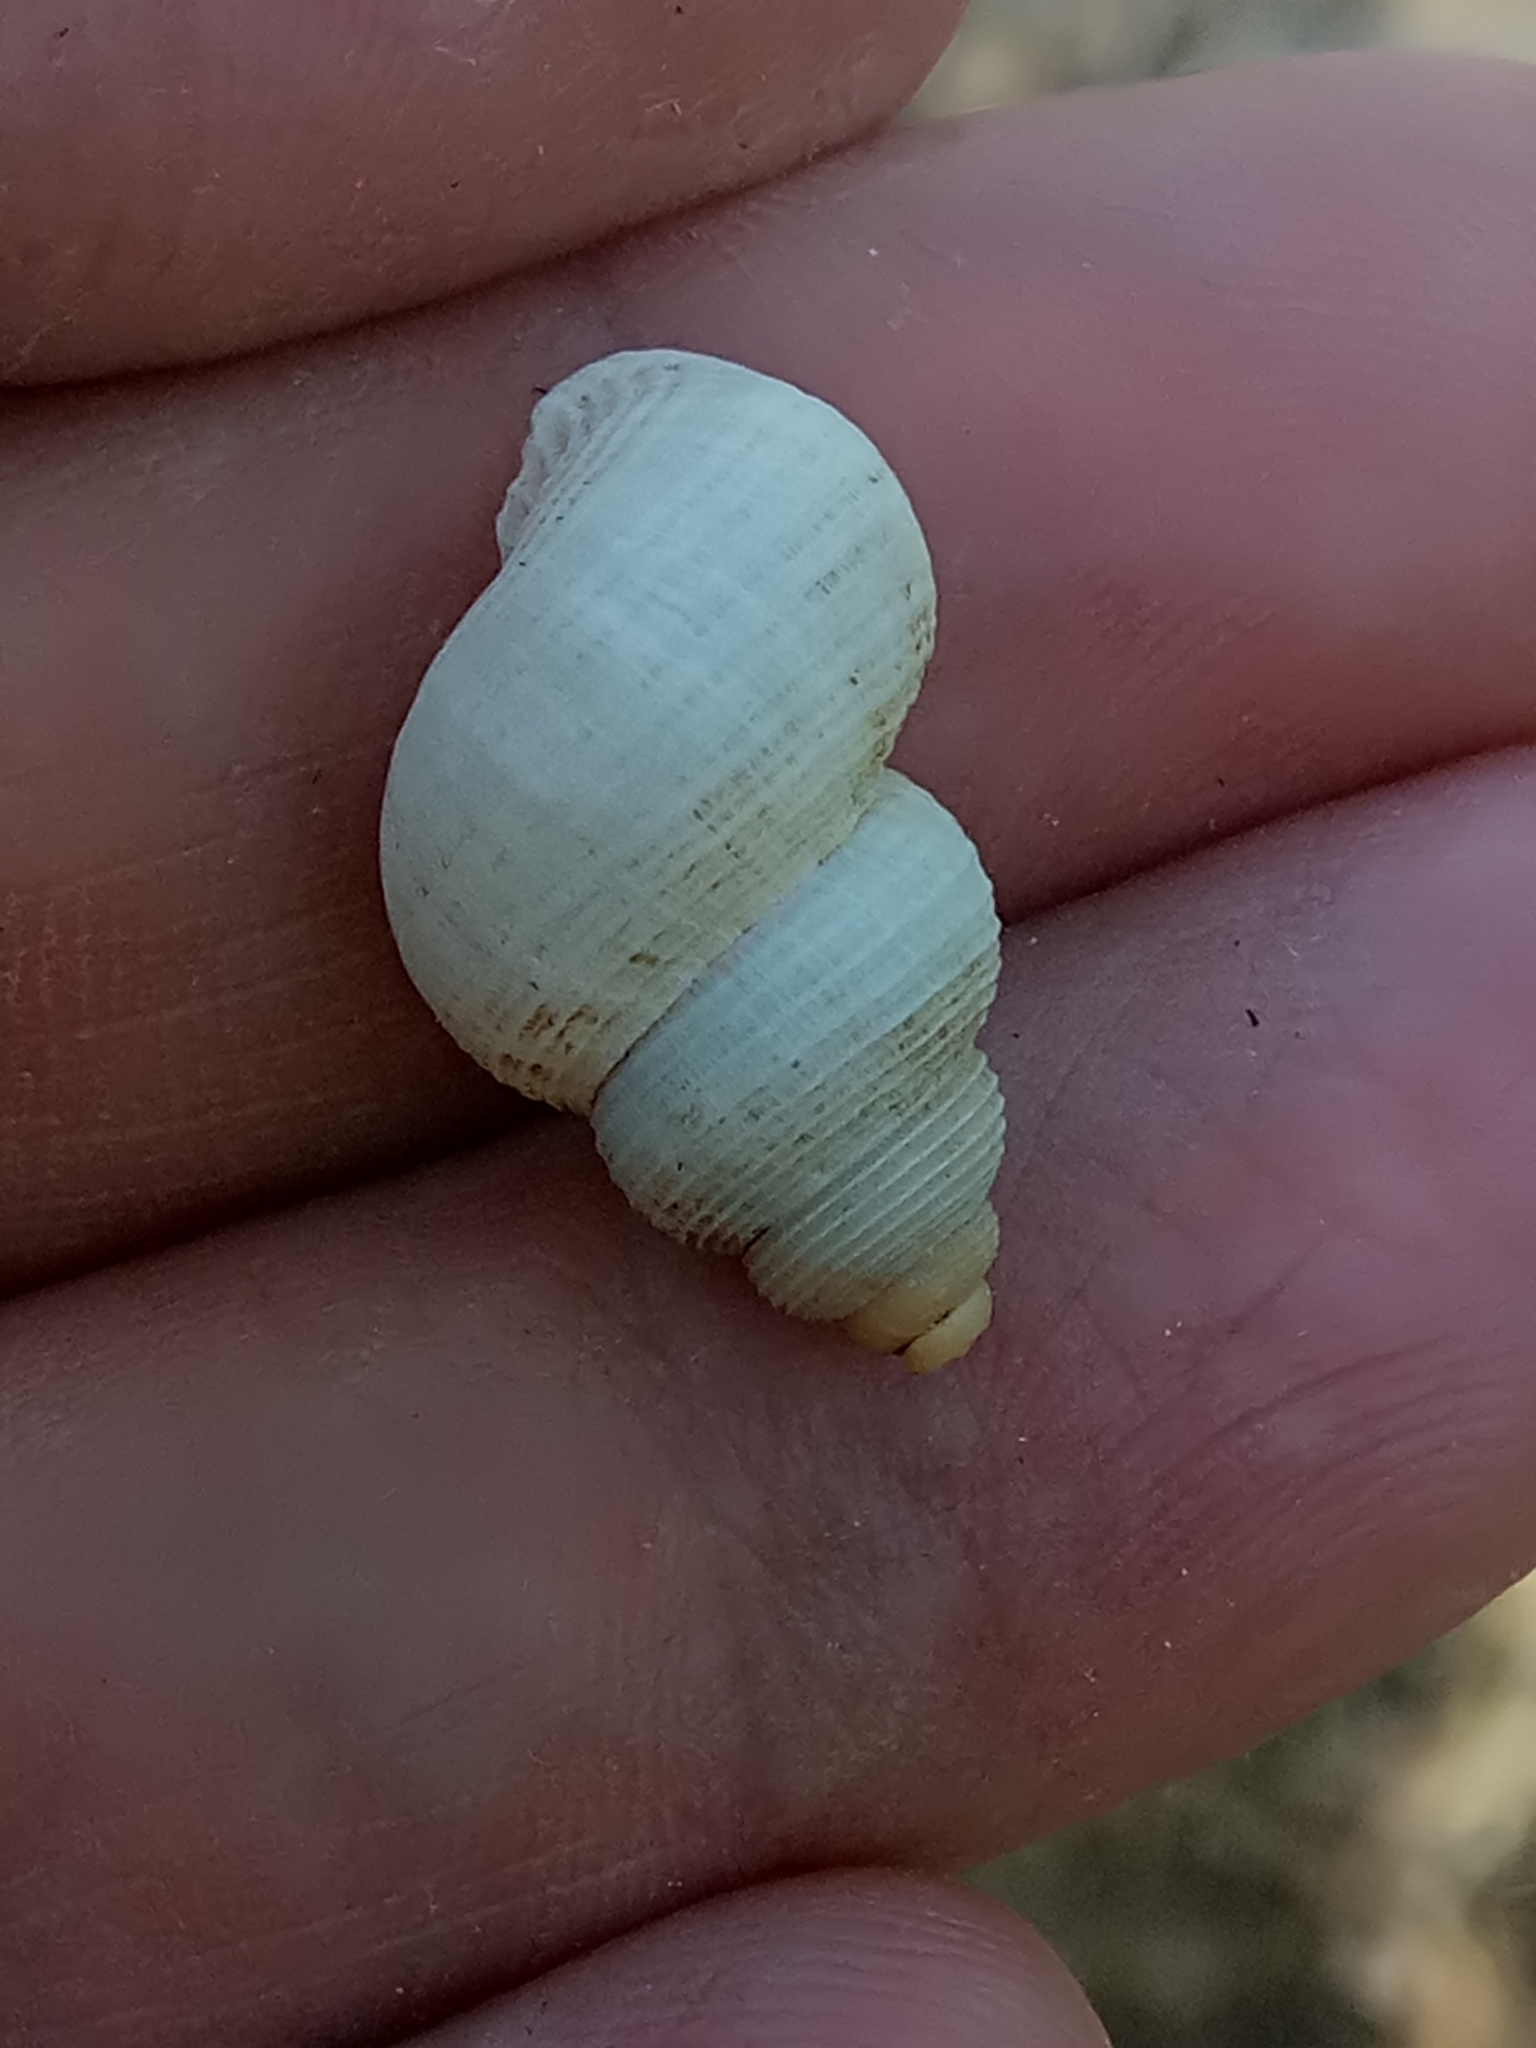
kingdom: Animalia
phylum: Mollusca
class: Gastropoda
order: Littorinimorpha
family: Pomatiidae
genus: Tudorella
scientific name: Tudorella sulcata
